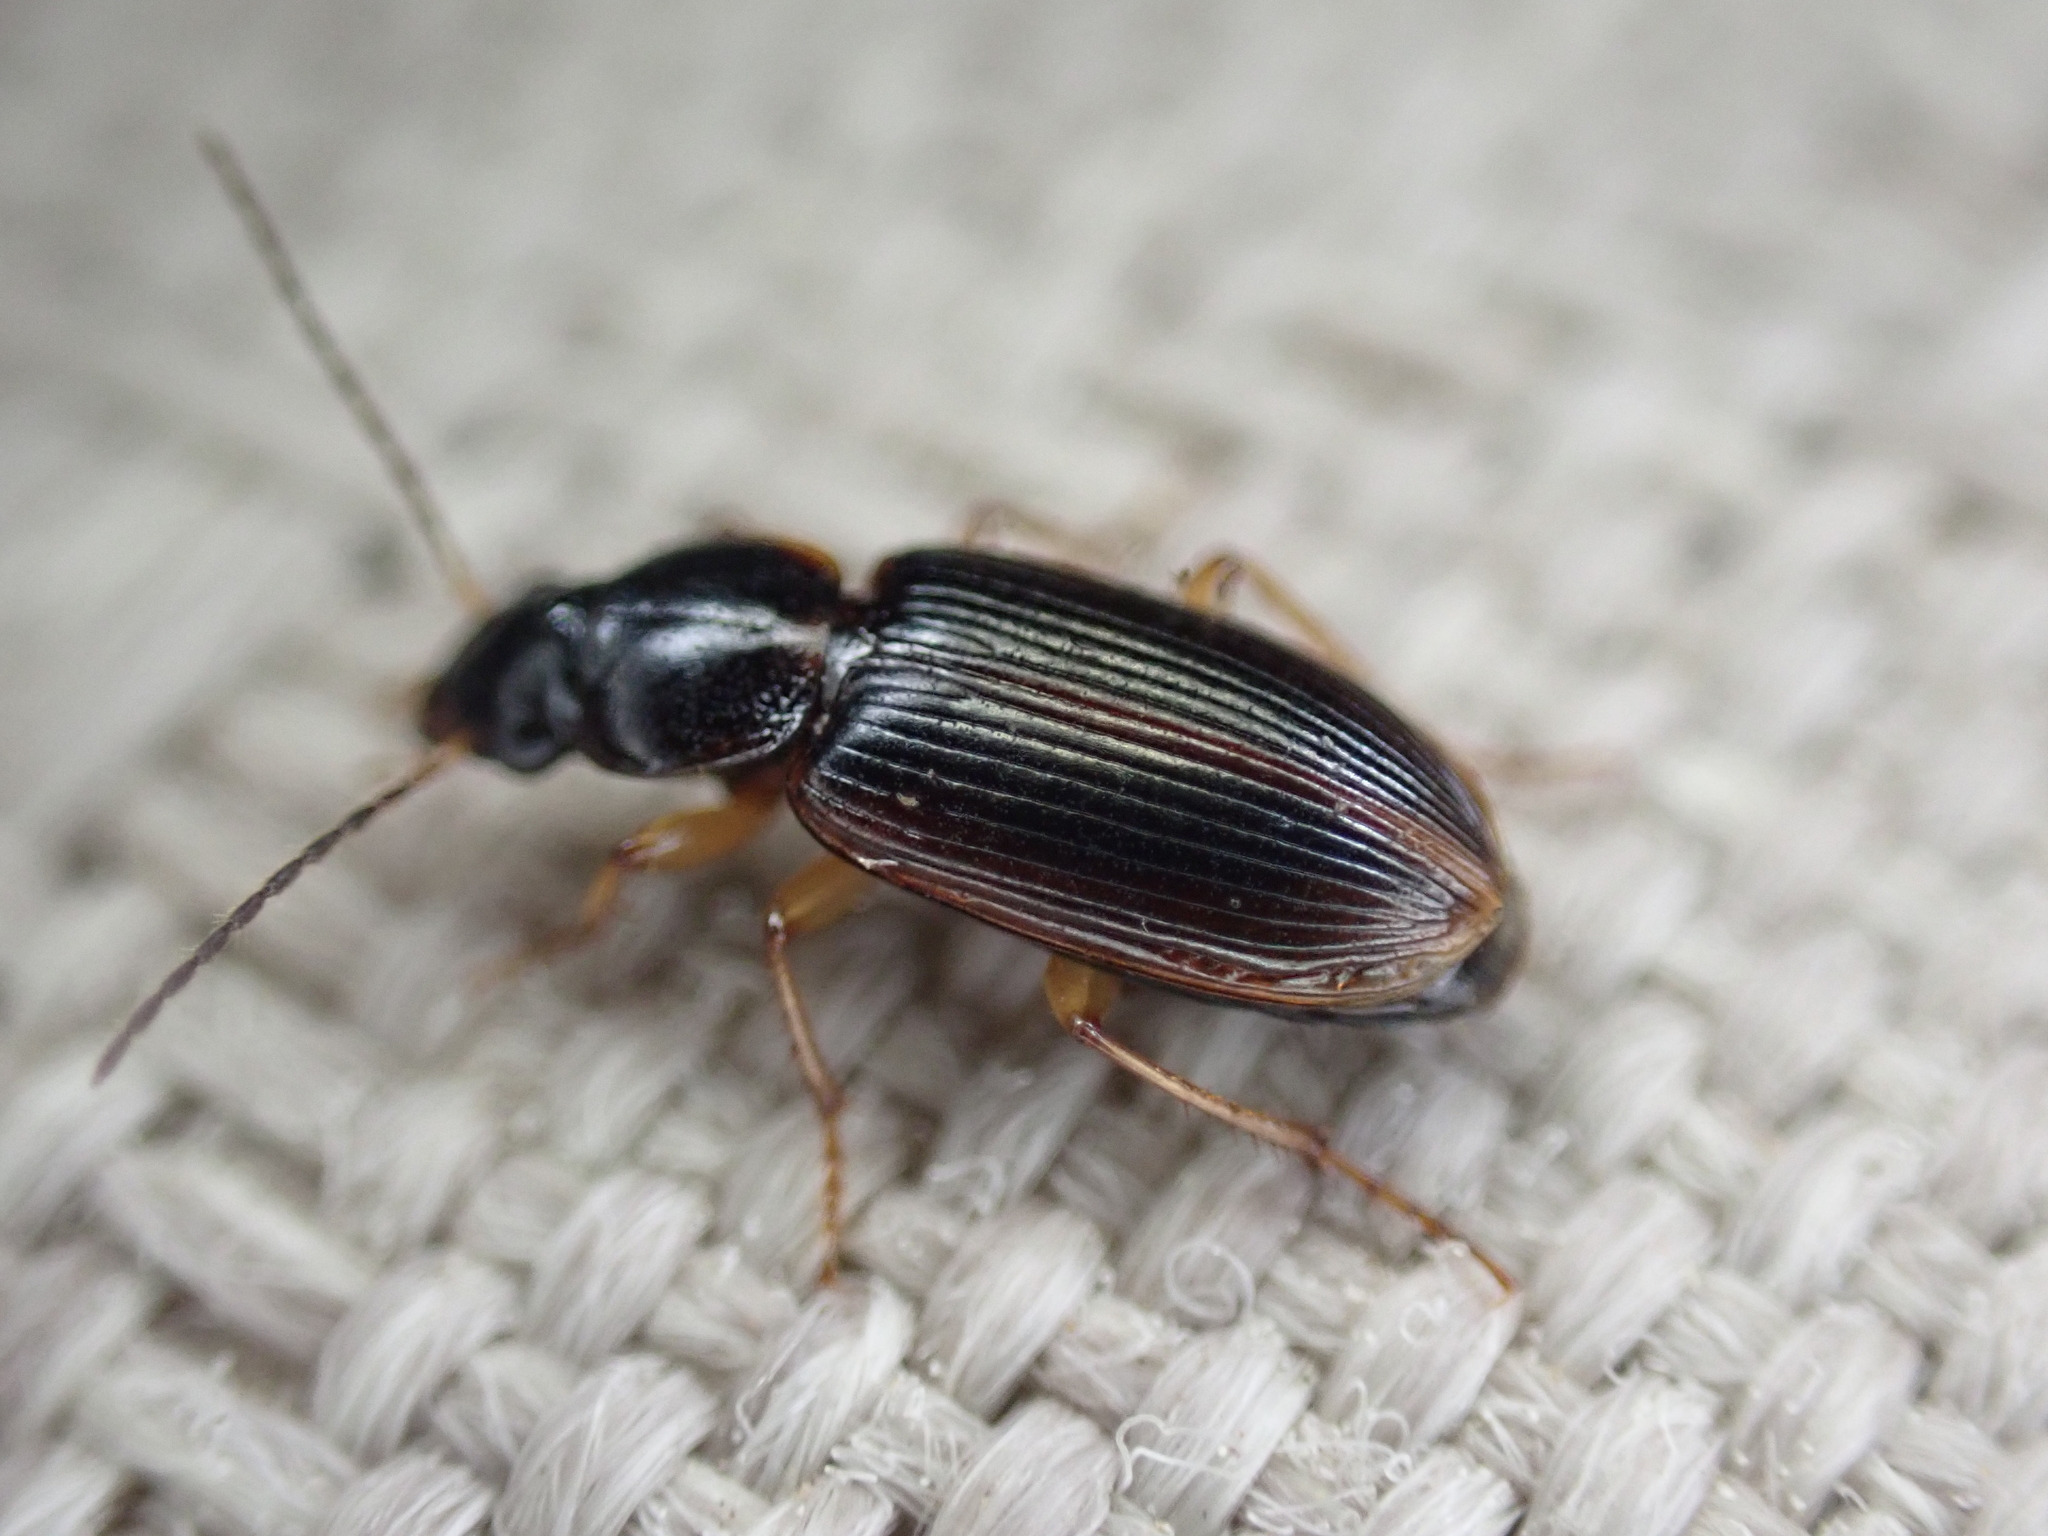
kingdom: Animalia
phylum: Arthropoda
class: Insecta
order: Coleoptera
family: Carabidae
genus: Stenolophus
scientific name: Stenolophus ochropezus
